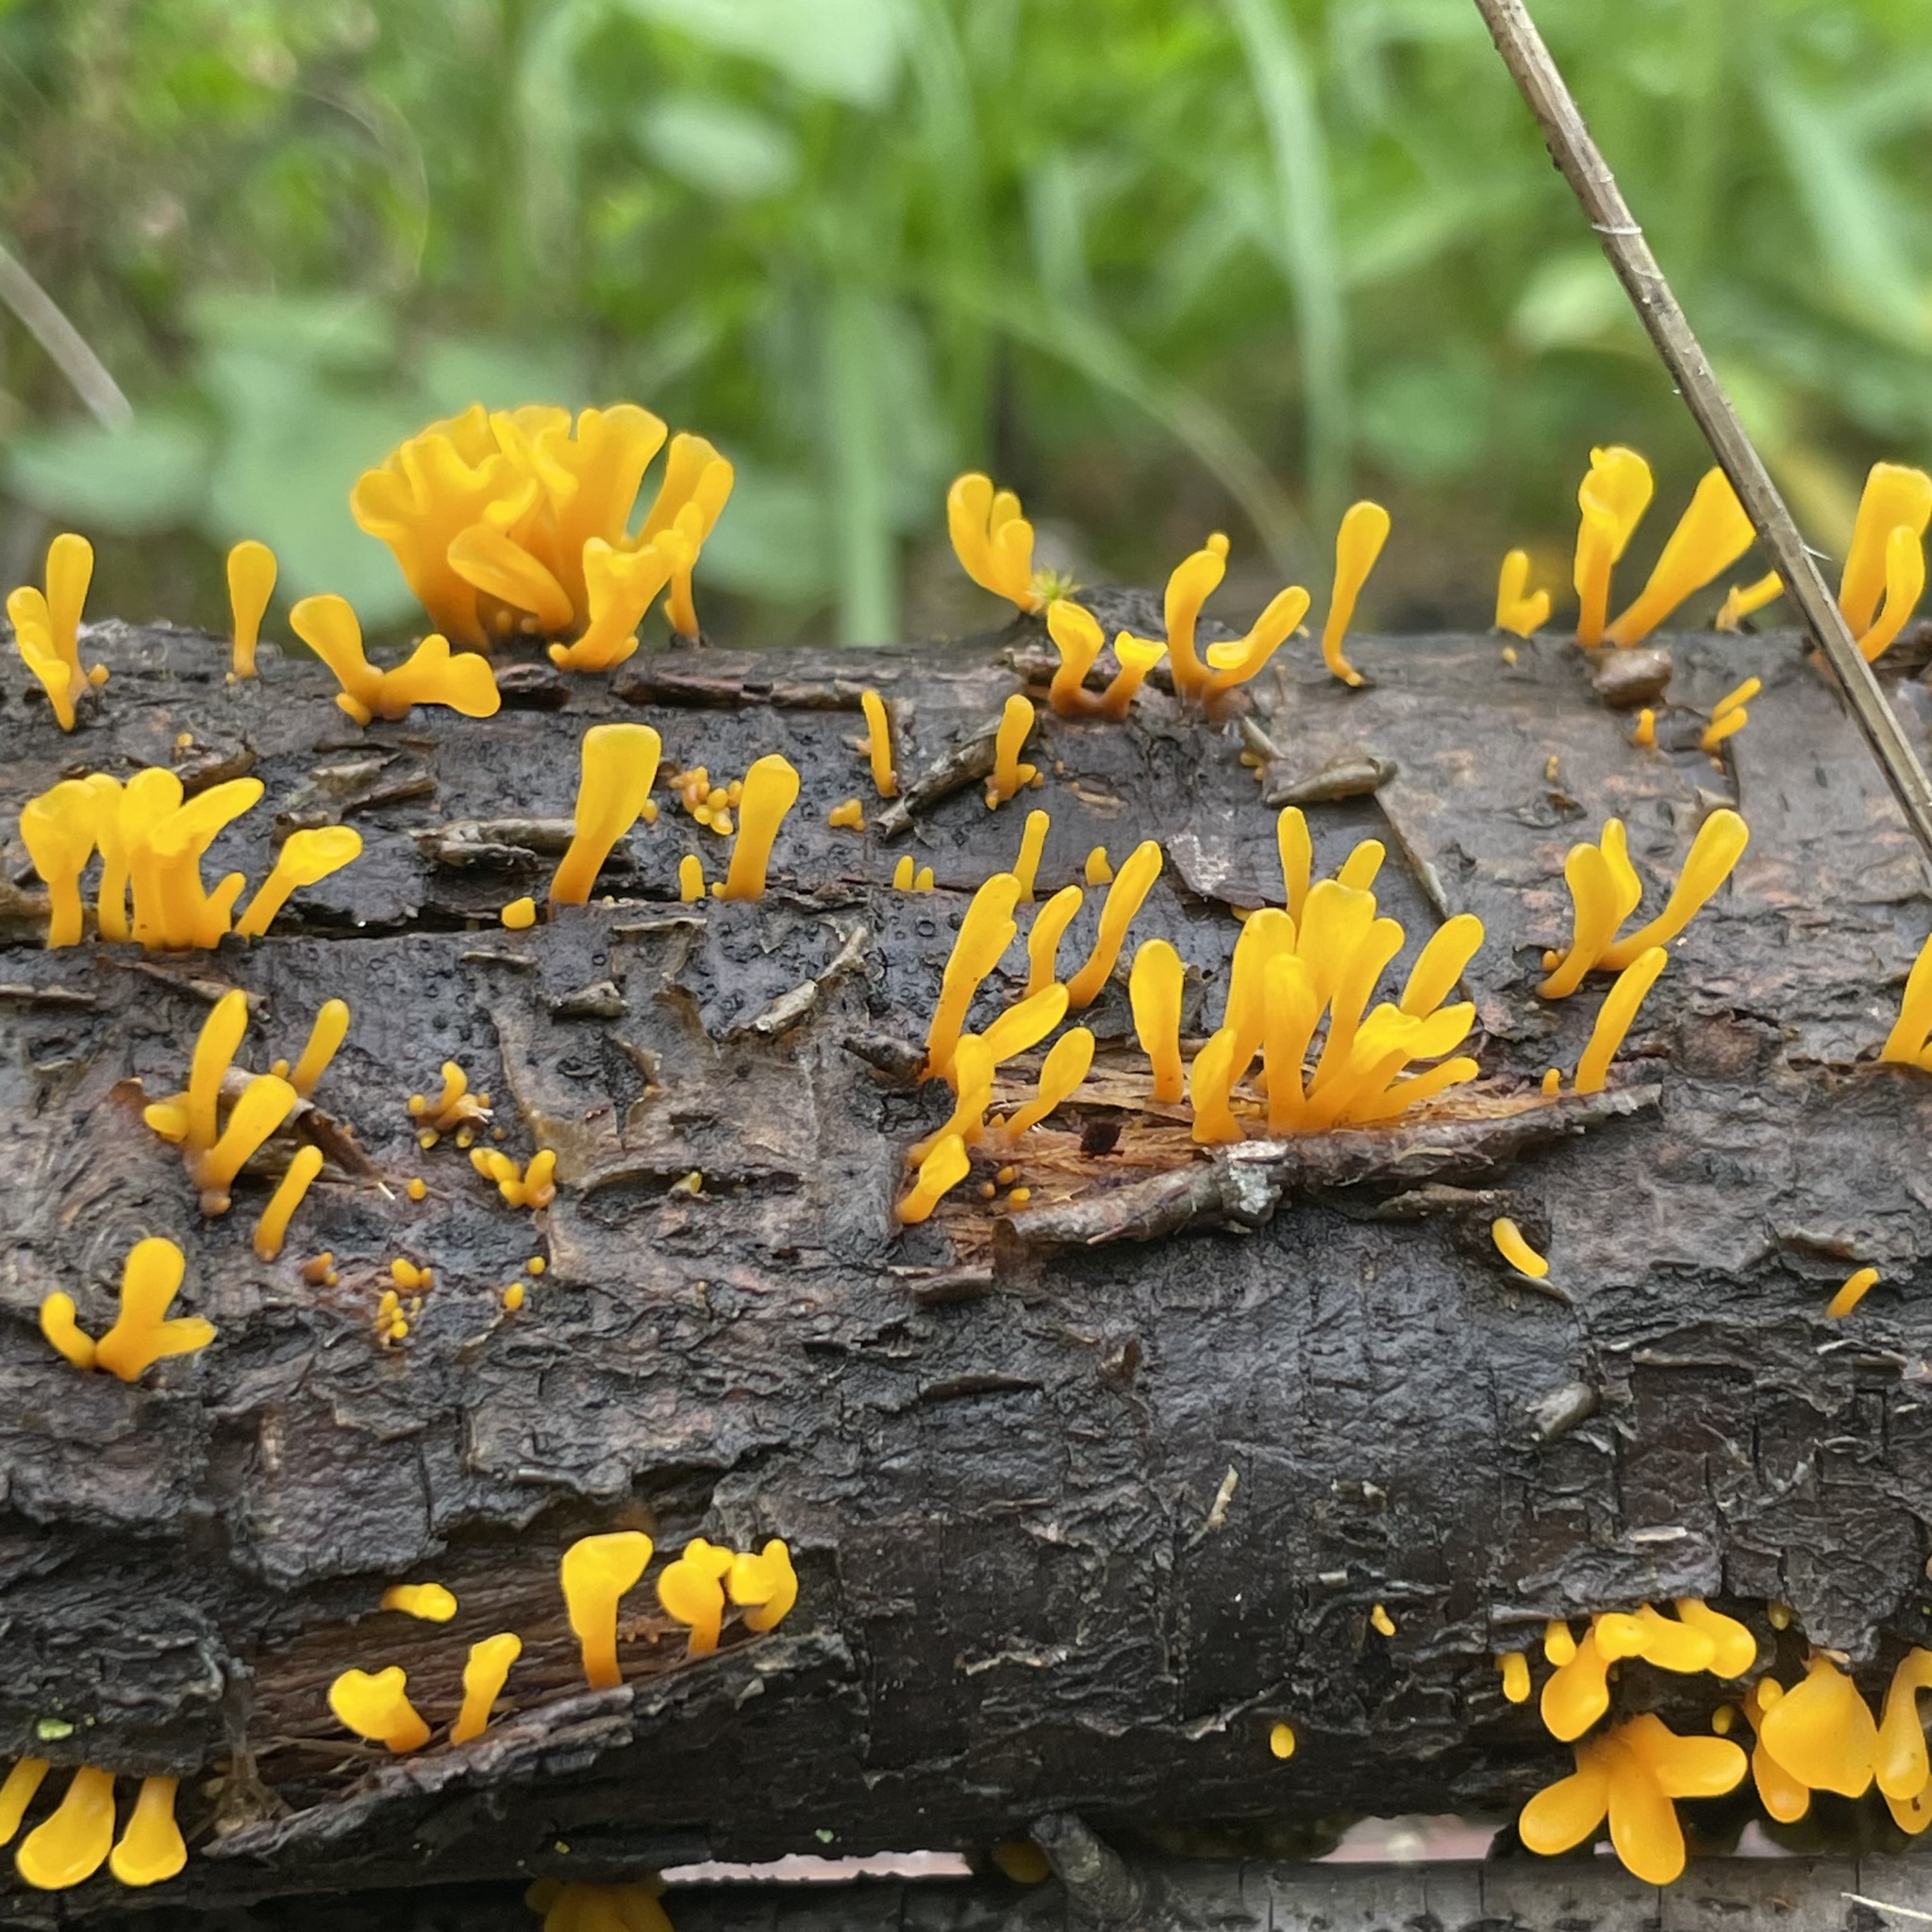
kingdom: Fungi
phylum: Basidiomycota
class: Dacrymycetes
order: Dacrymycetales
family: Dacrymycetaceae
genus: Dacrymyces
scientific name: Dacrymyces spathularius
